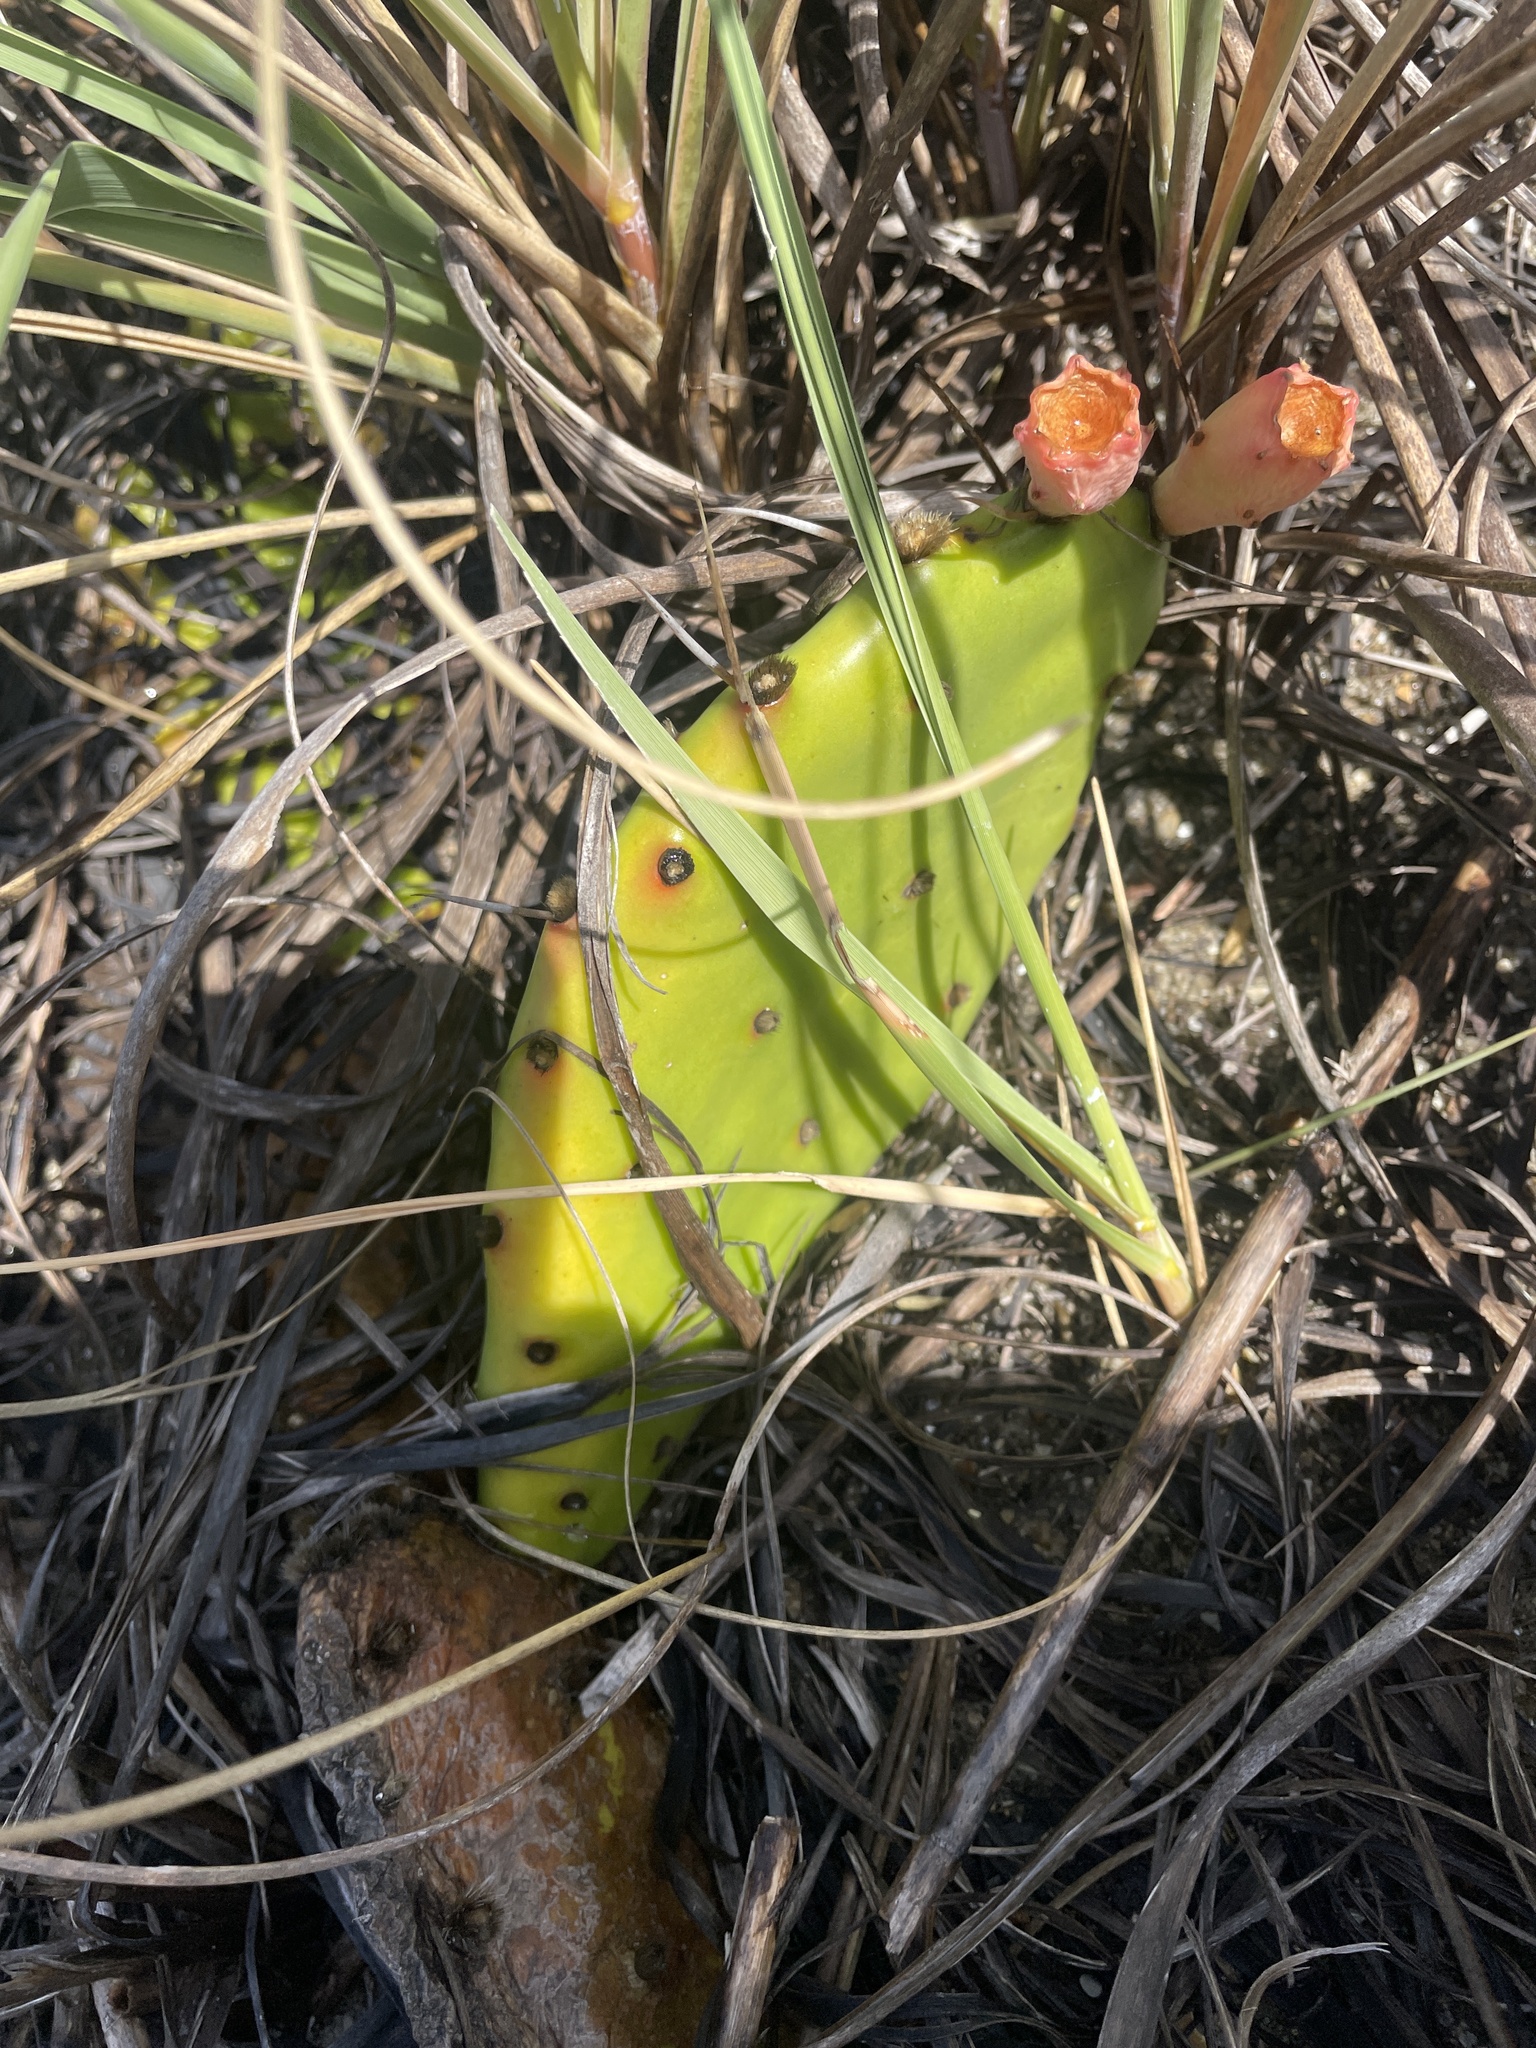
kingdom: Plantae
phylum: Tracheophyta
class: Magnoliopsida
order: Caryophyllales
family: Cactaceae
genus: Opuntia
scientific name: Opuntia drummondii
